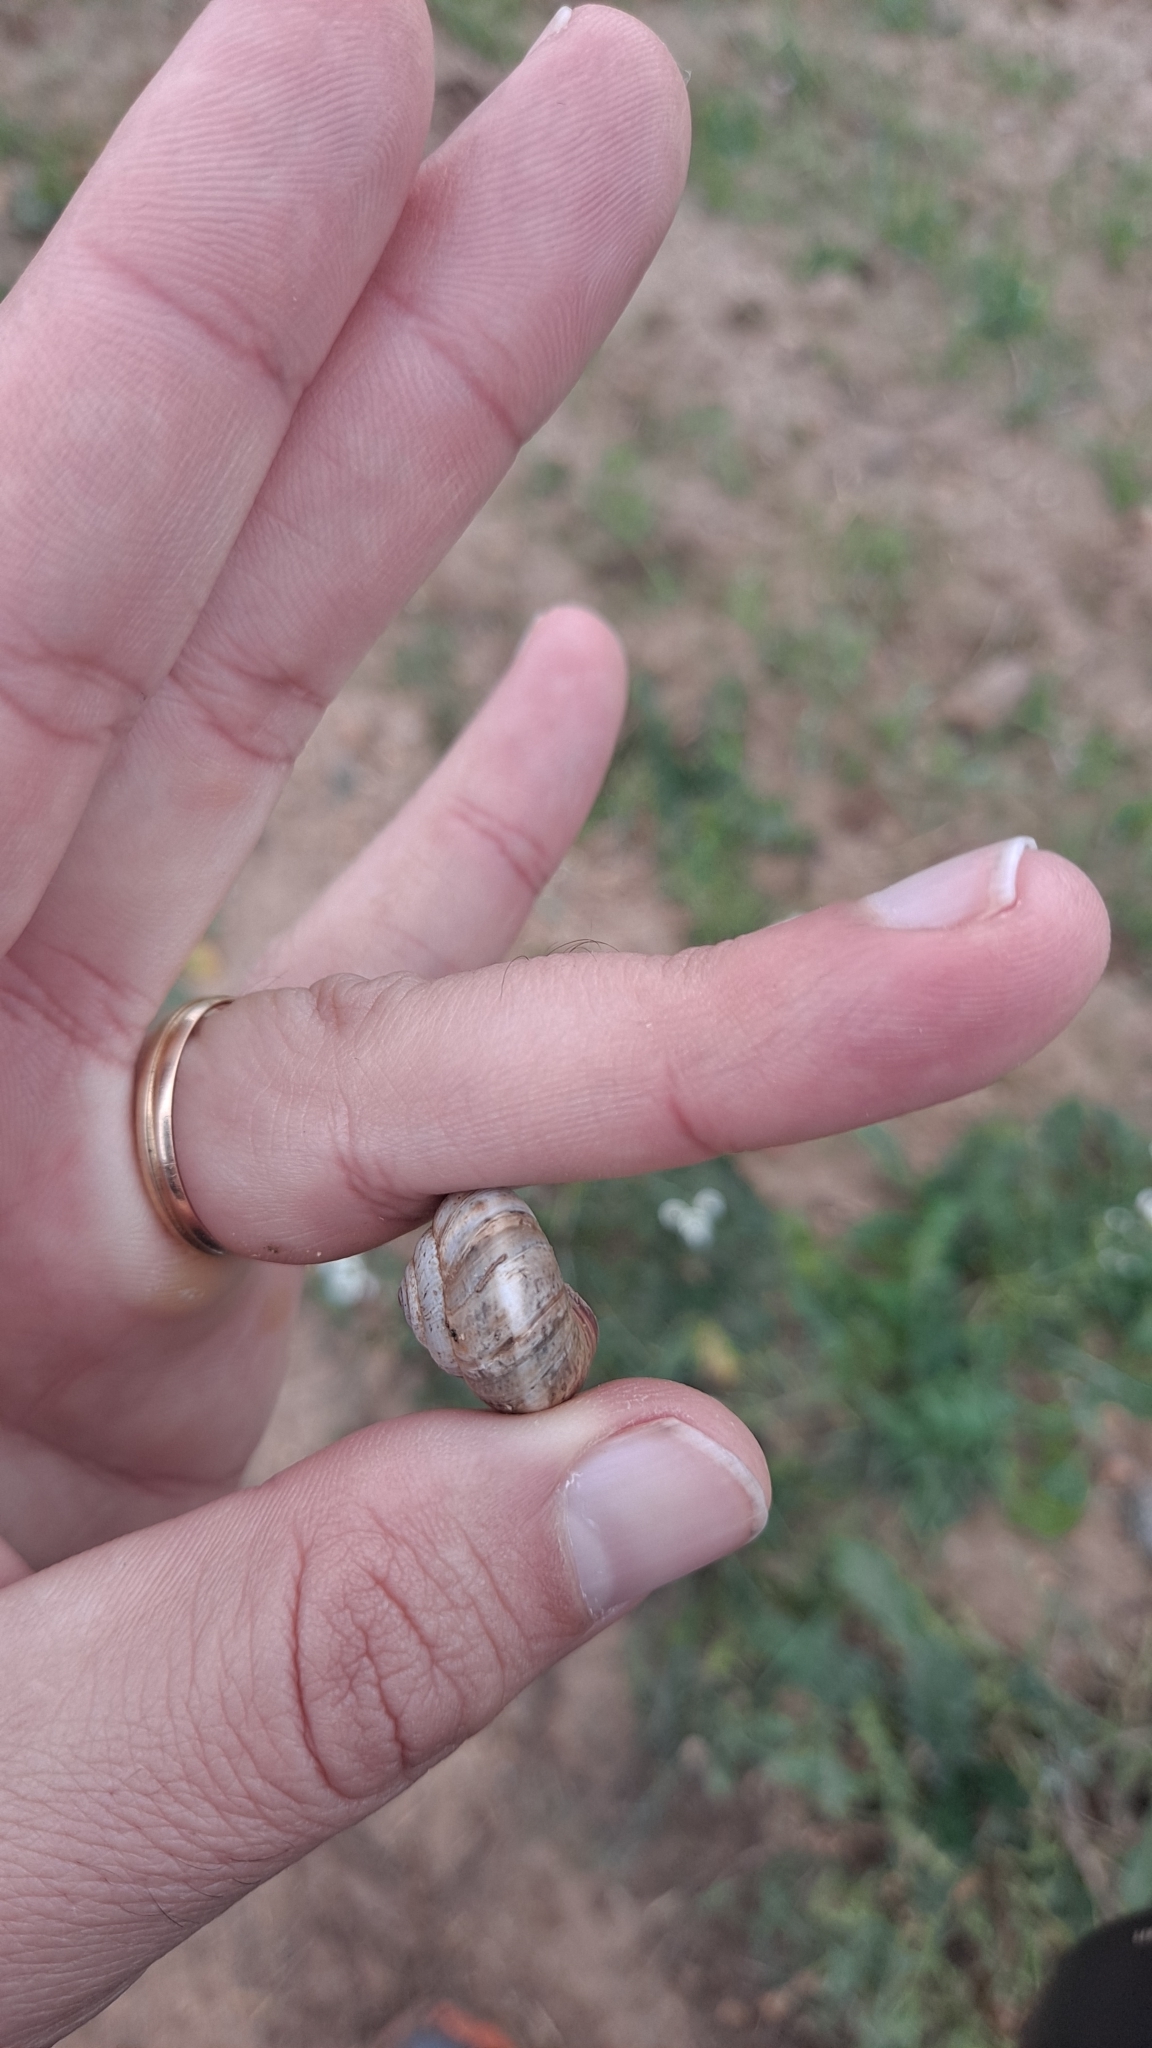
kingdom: Animalia
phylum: Mollusca
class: Gastropoda
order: Stylommatophora
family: Geomitridae
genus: Cernuella
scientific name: Cernuella virgata
